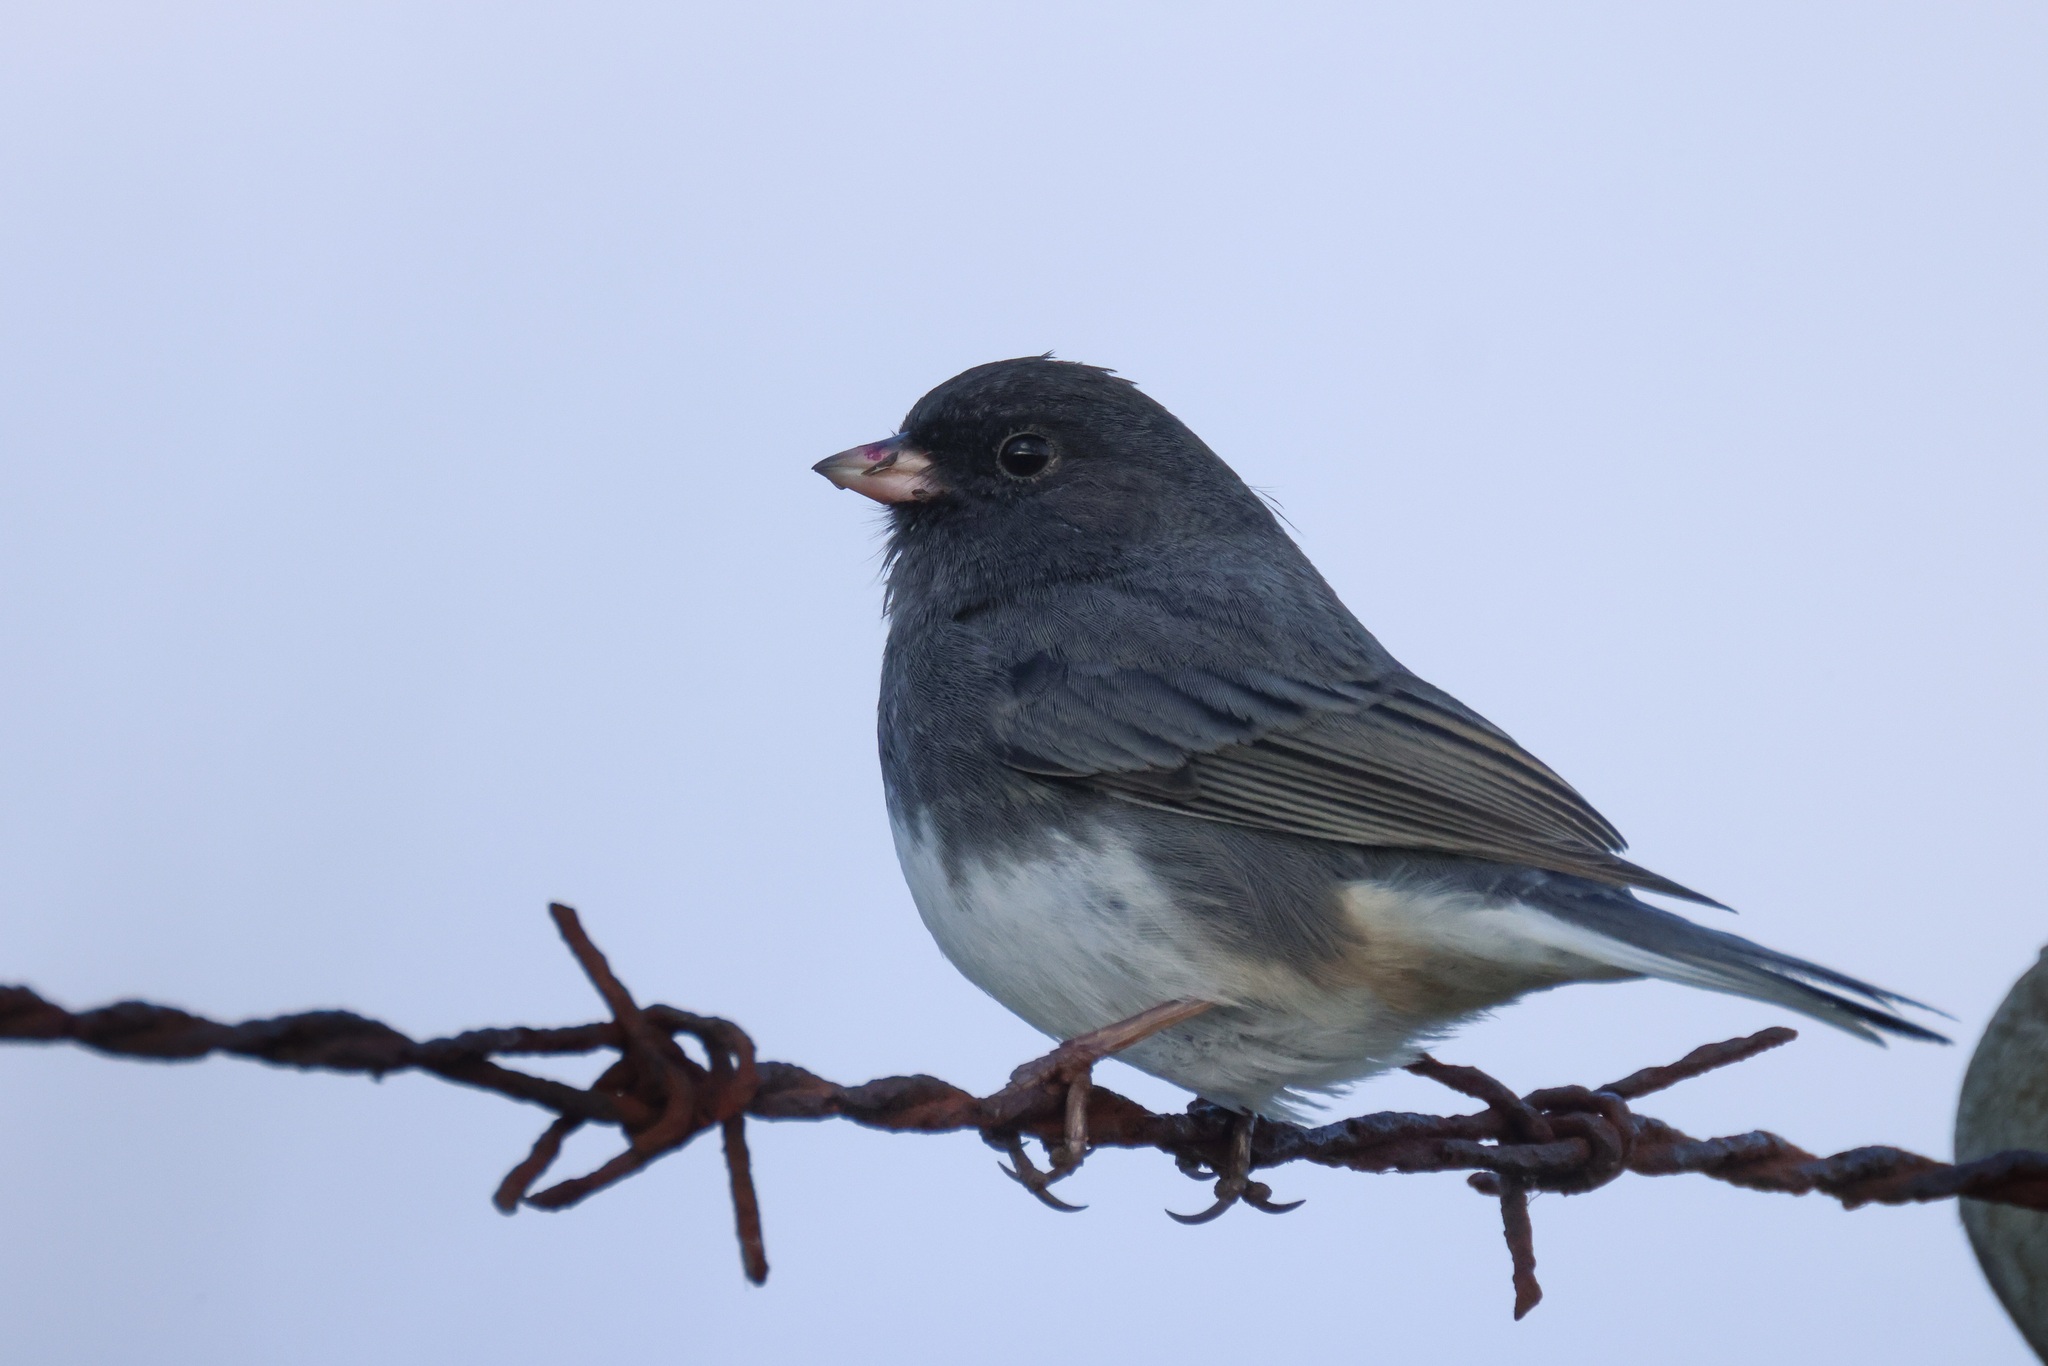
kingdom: Animalia
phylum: Chordata
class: Aves
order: Passeriformes
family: Passerellidae
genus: Junco
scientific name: Junco hyemalis
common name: Dark-eyed junco
